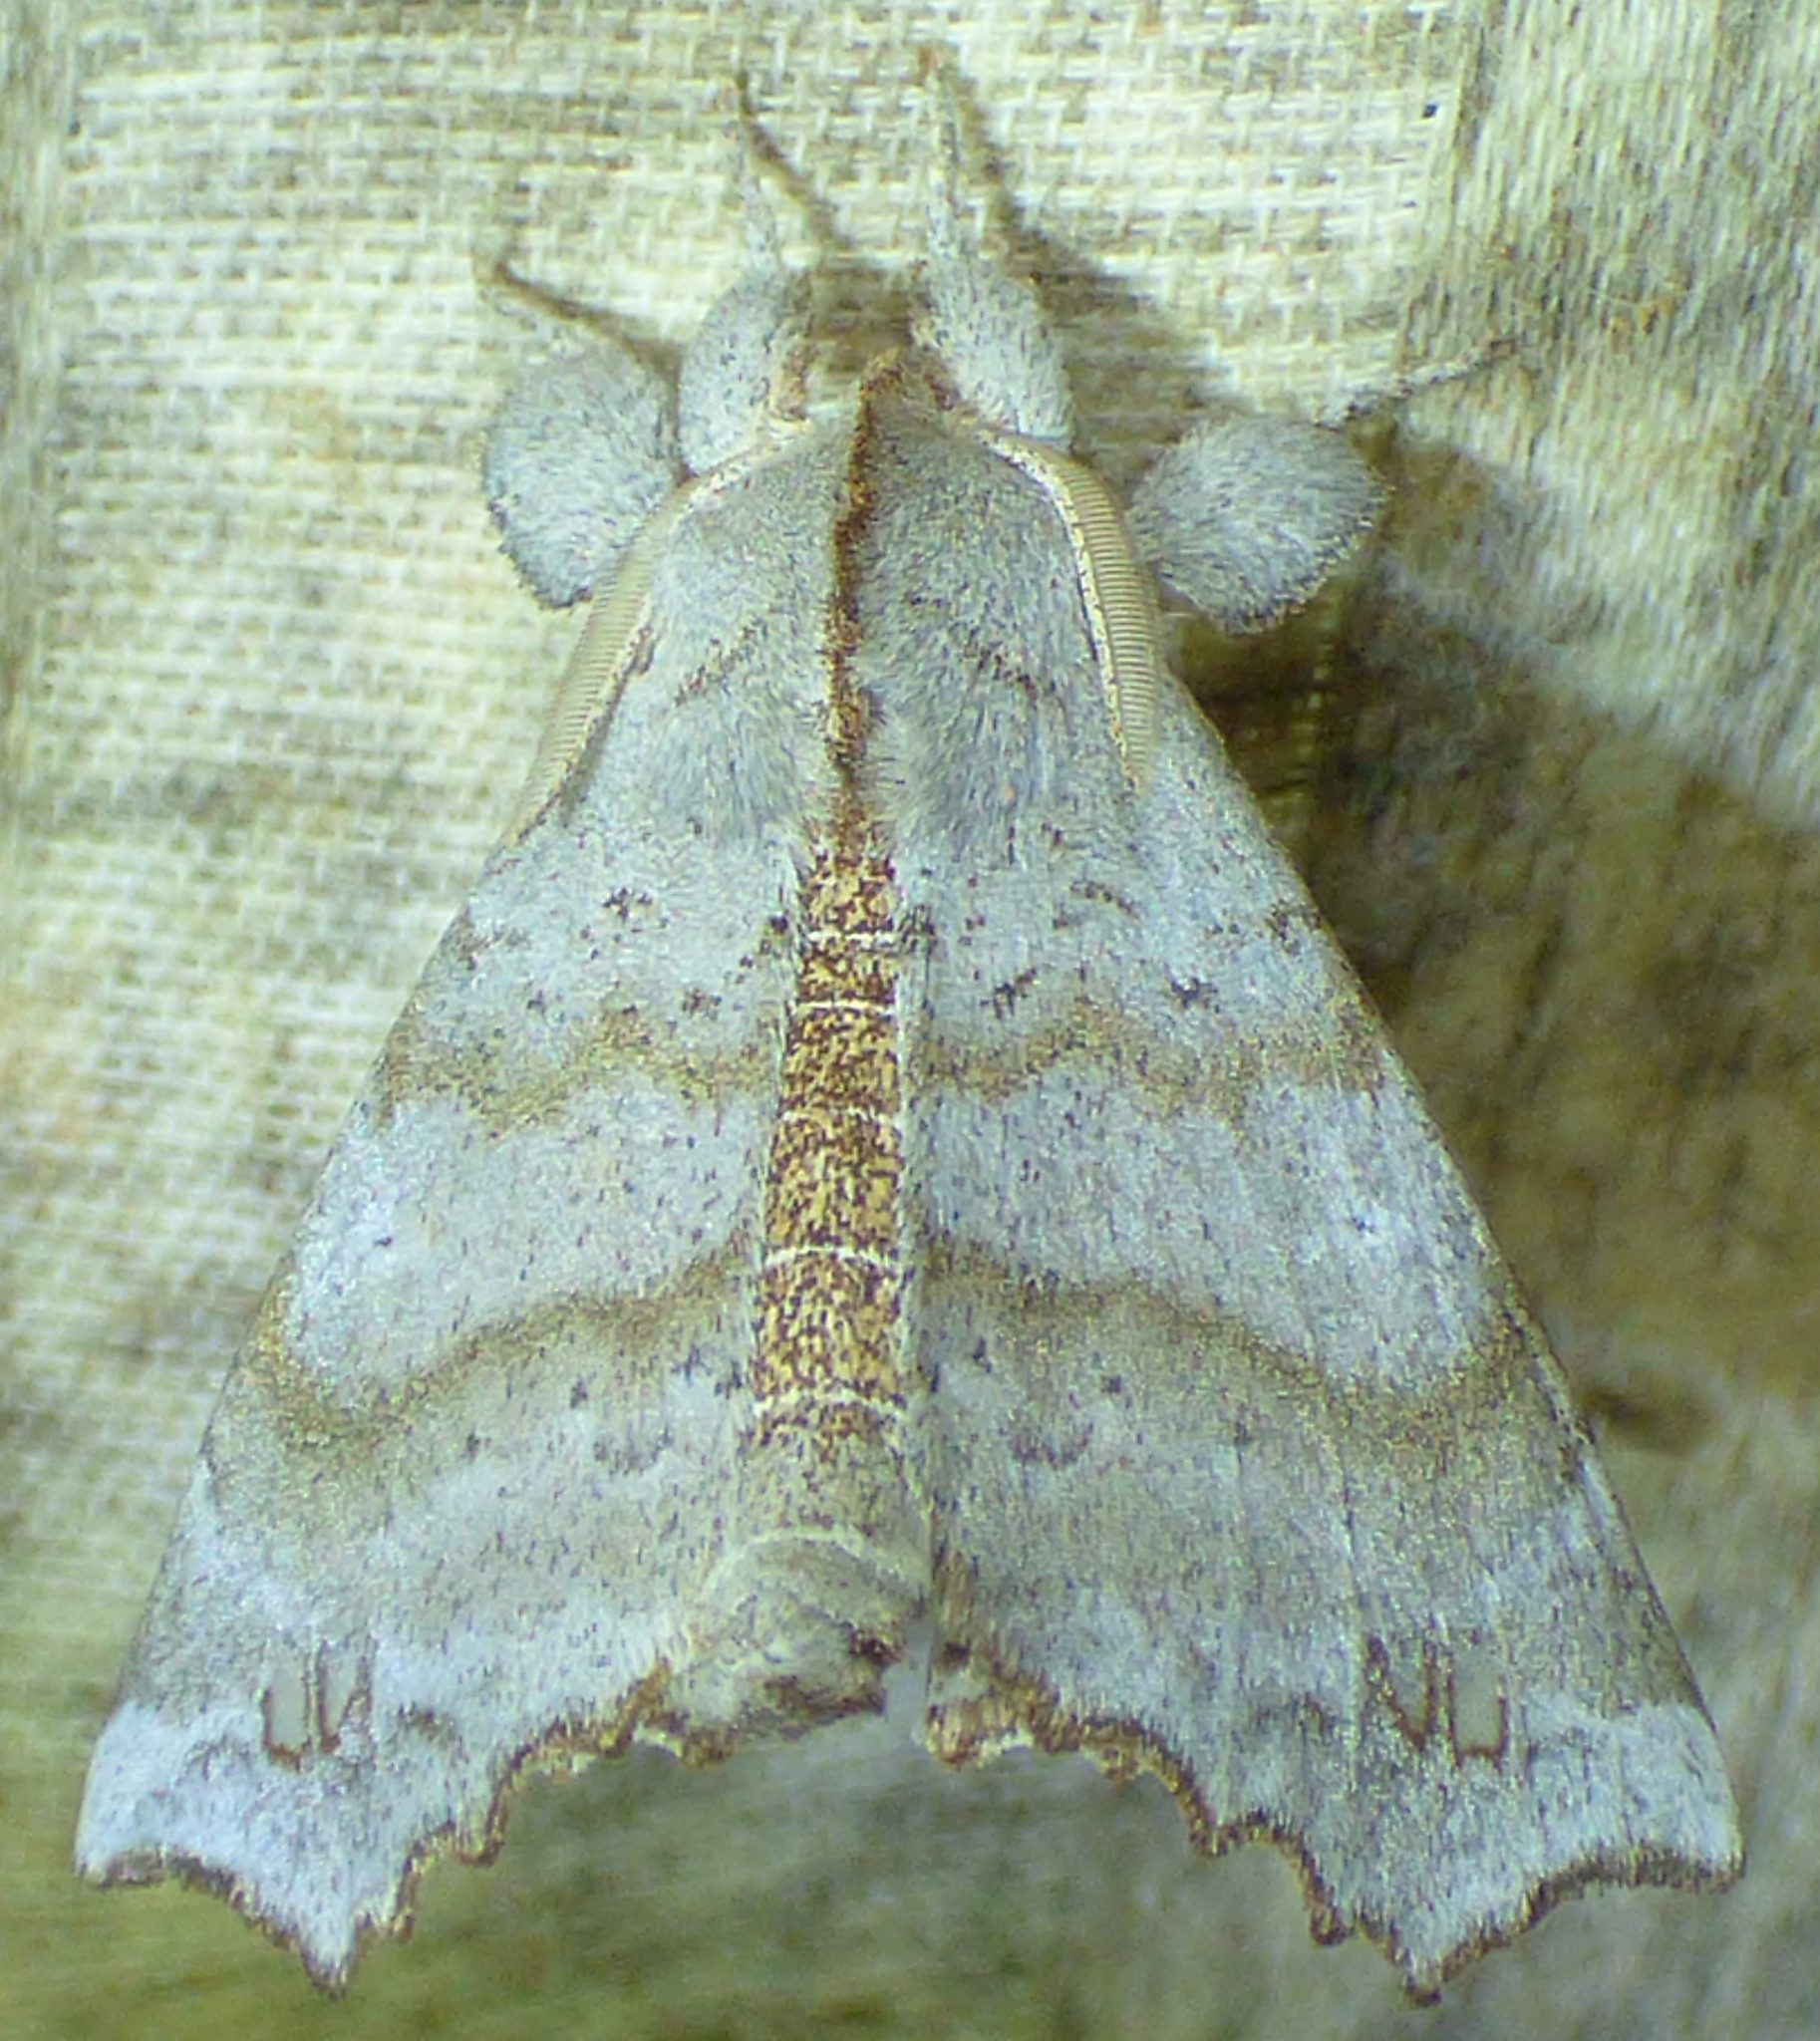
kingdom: Animalia
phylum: Arthropoda
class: Insecta
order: Lepidoptera
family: Apatelodidae
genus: Olceclostera
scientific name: Olceclostera angelica
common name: Angel moth
